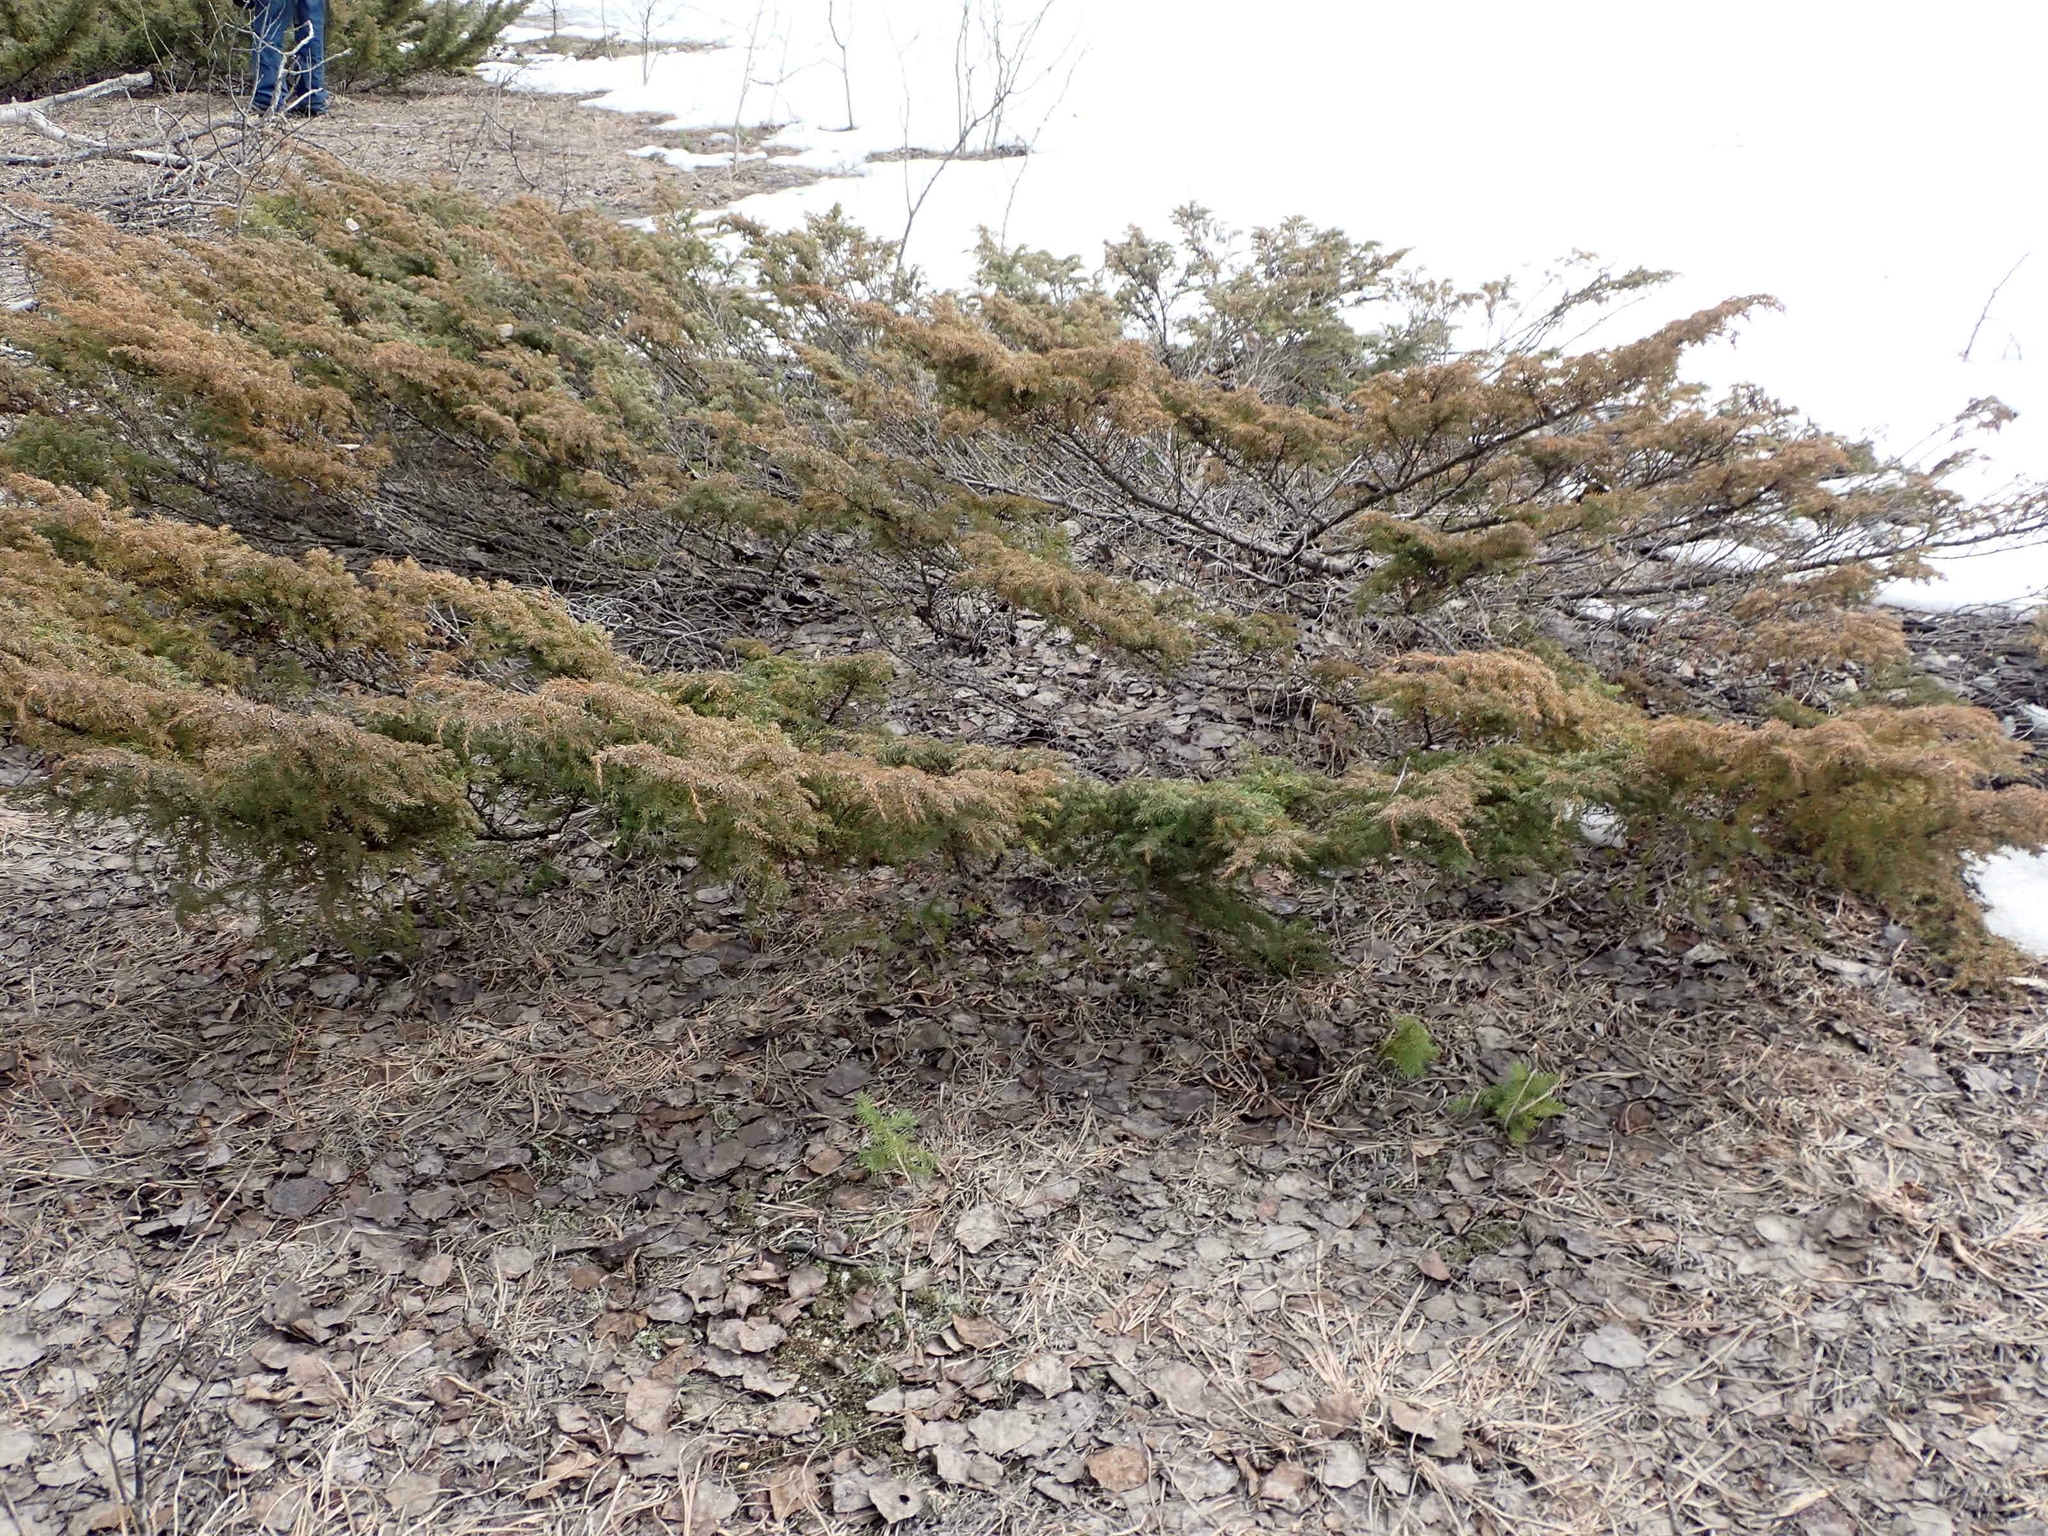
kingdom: Plantae
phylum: Tracheophyta
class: Pinopsida
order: Pinales
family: Cupressaceae
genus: Juniperus
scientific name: Juniperus communis
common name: Common juniper
